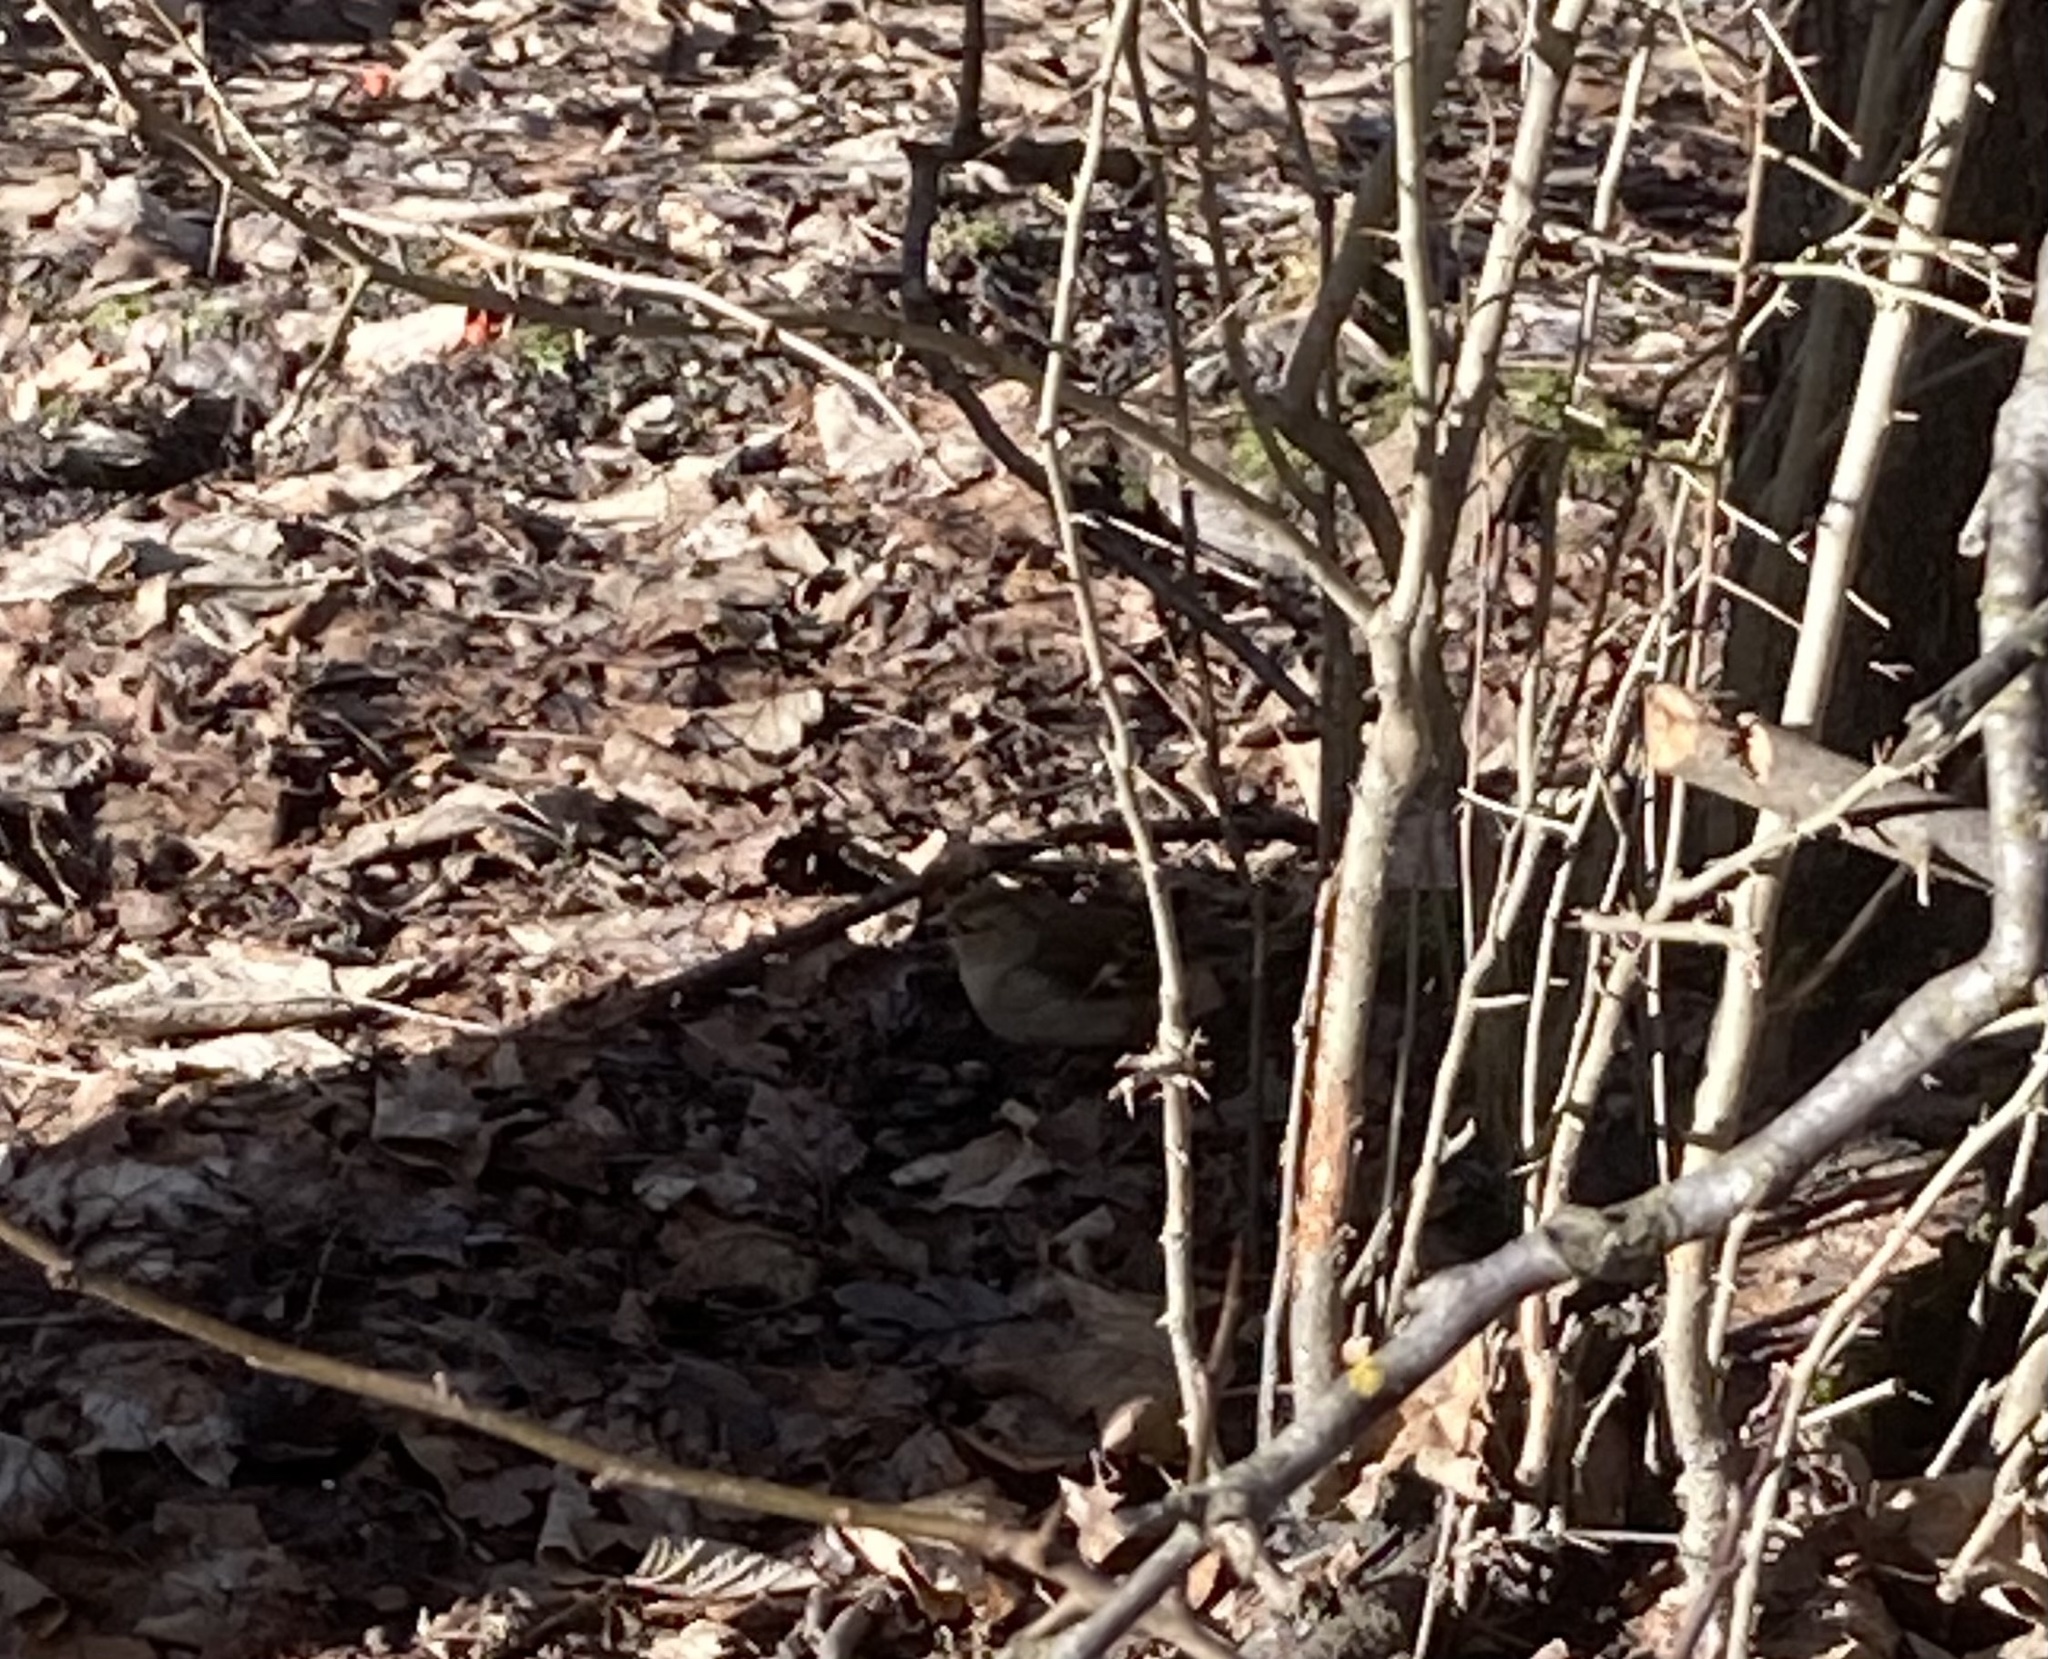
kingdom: Animalia
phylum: Chordata
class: Aves
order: Passeriformes
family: Fringillidae
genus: Fringilla
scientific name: Fringilla coelebs
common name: Common chaffinch
